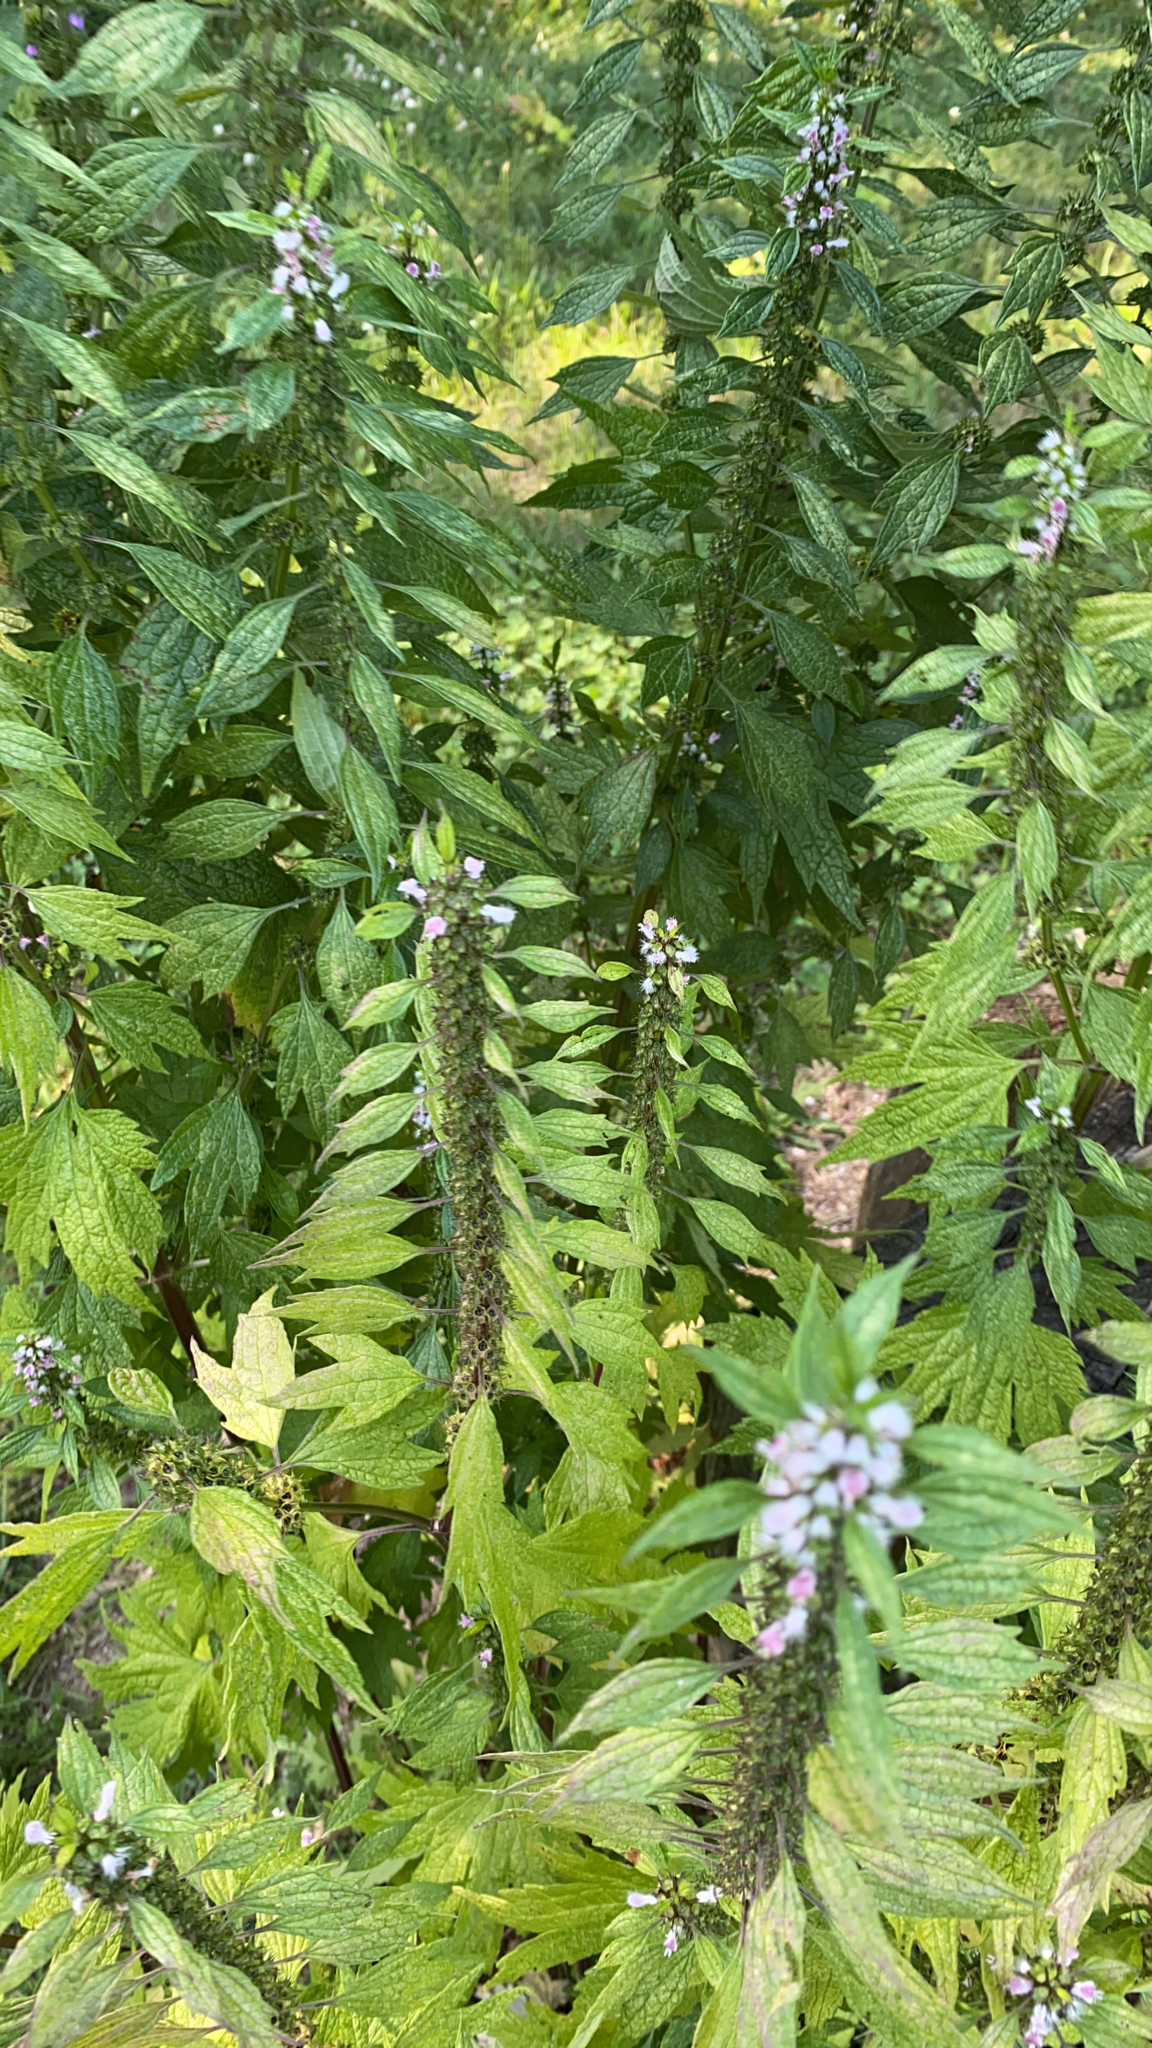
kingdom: Plantae
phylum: Tracheophyta
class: Magnoliopsida
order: Lamiales
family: Lamiaceae
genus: Leonurus
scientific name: Leonurus cardiaca
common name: Motherwort
